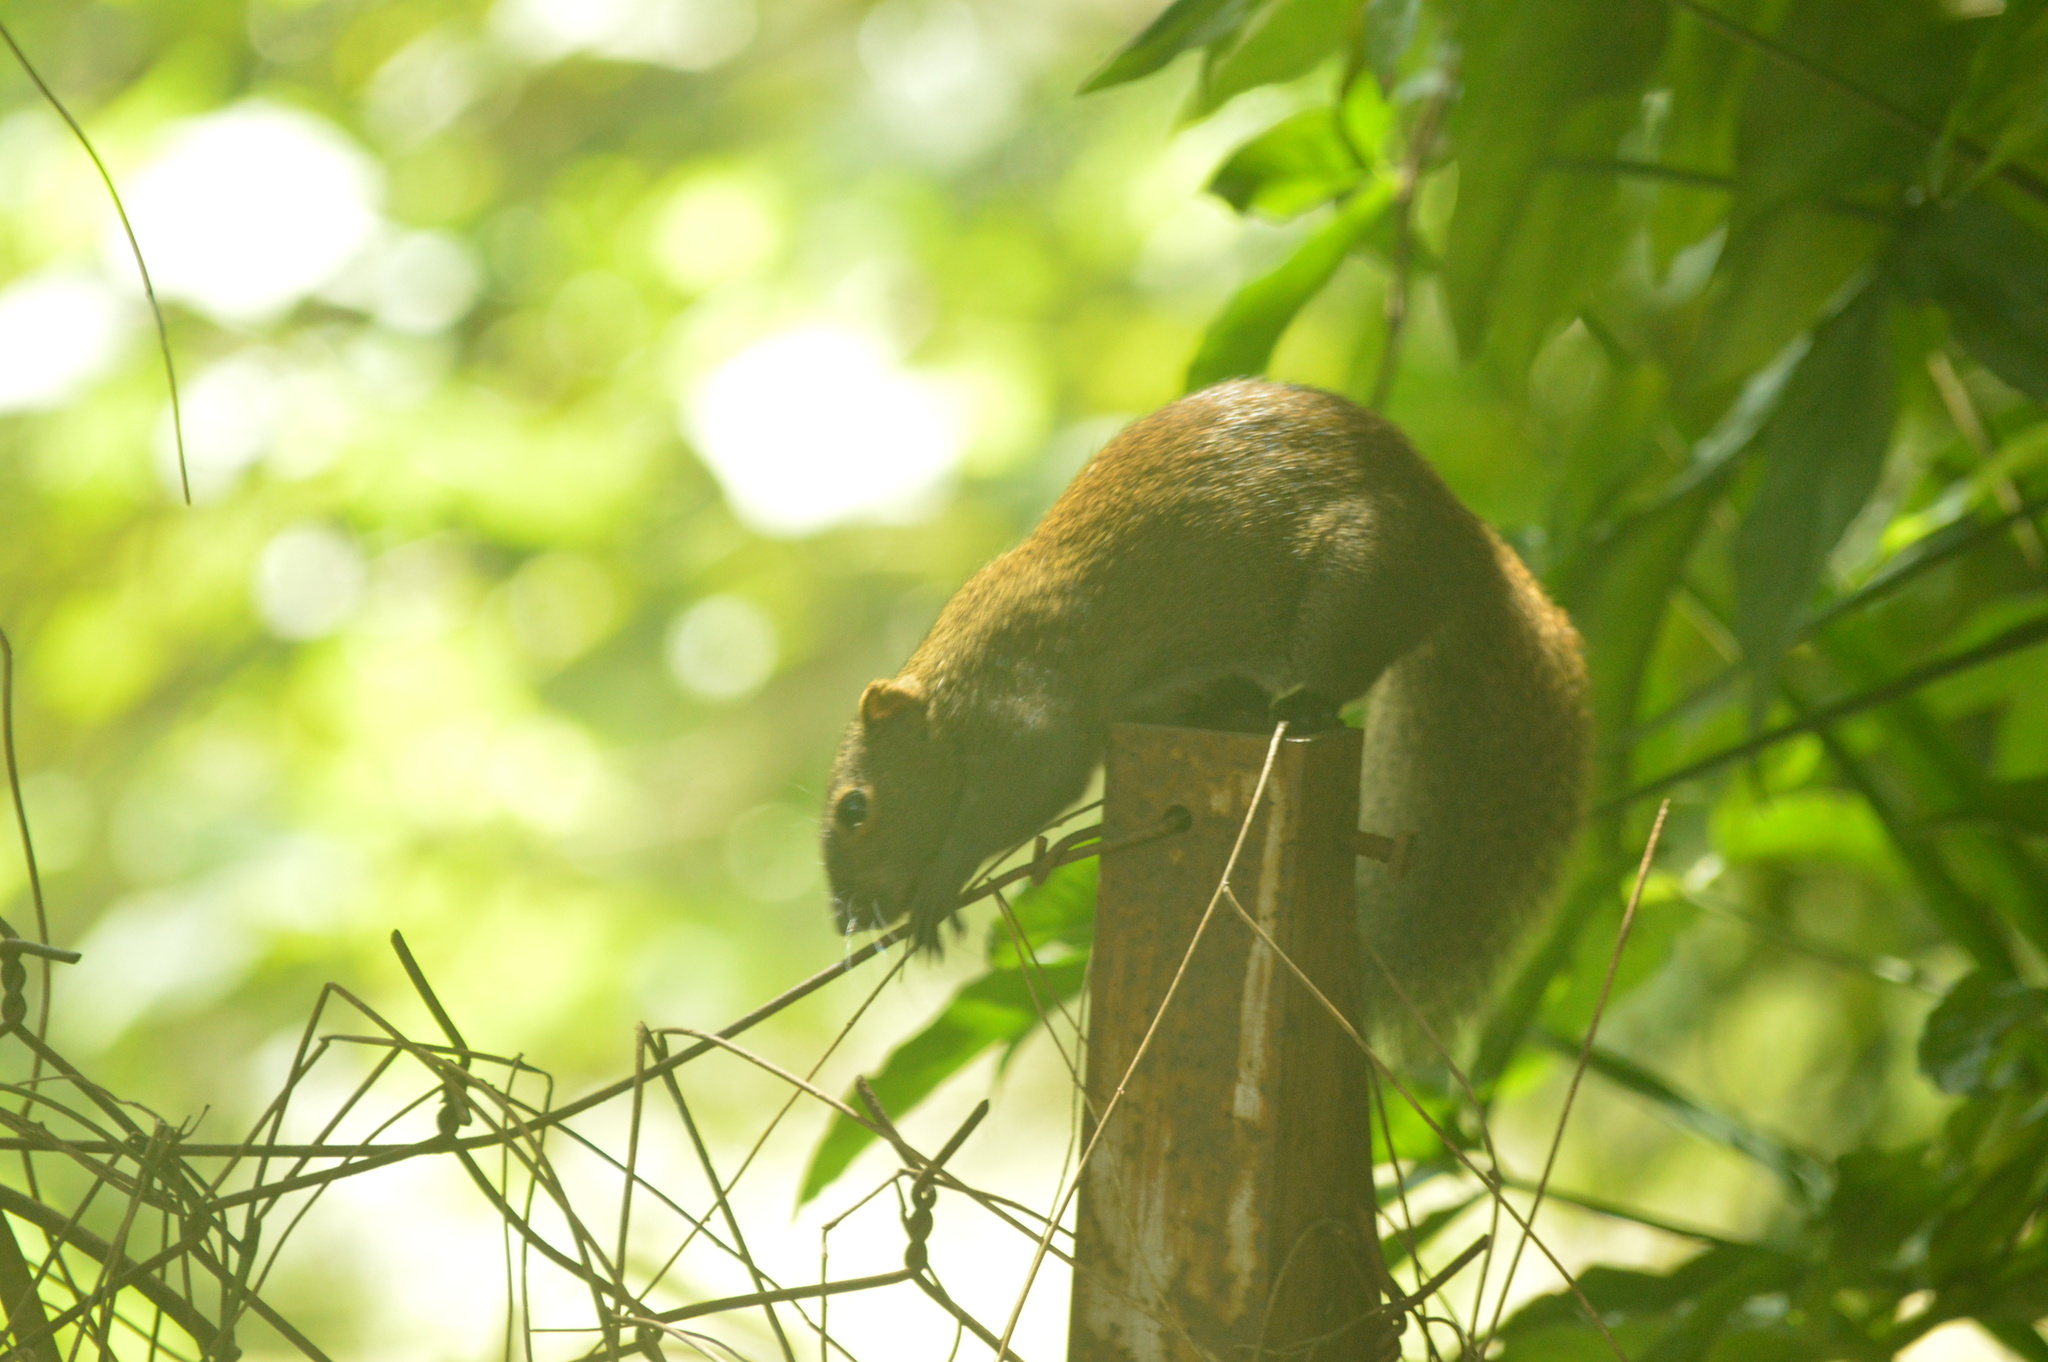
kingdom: Animalia
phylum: Chordata
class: Mammalia
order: Rodentia
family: Sciuridae
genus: Callosciurus
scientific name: Callosciurus caniceps
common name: Gray-bellied squirrel
